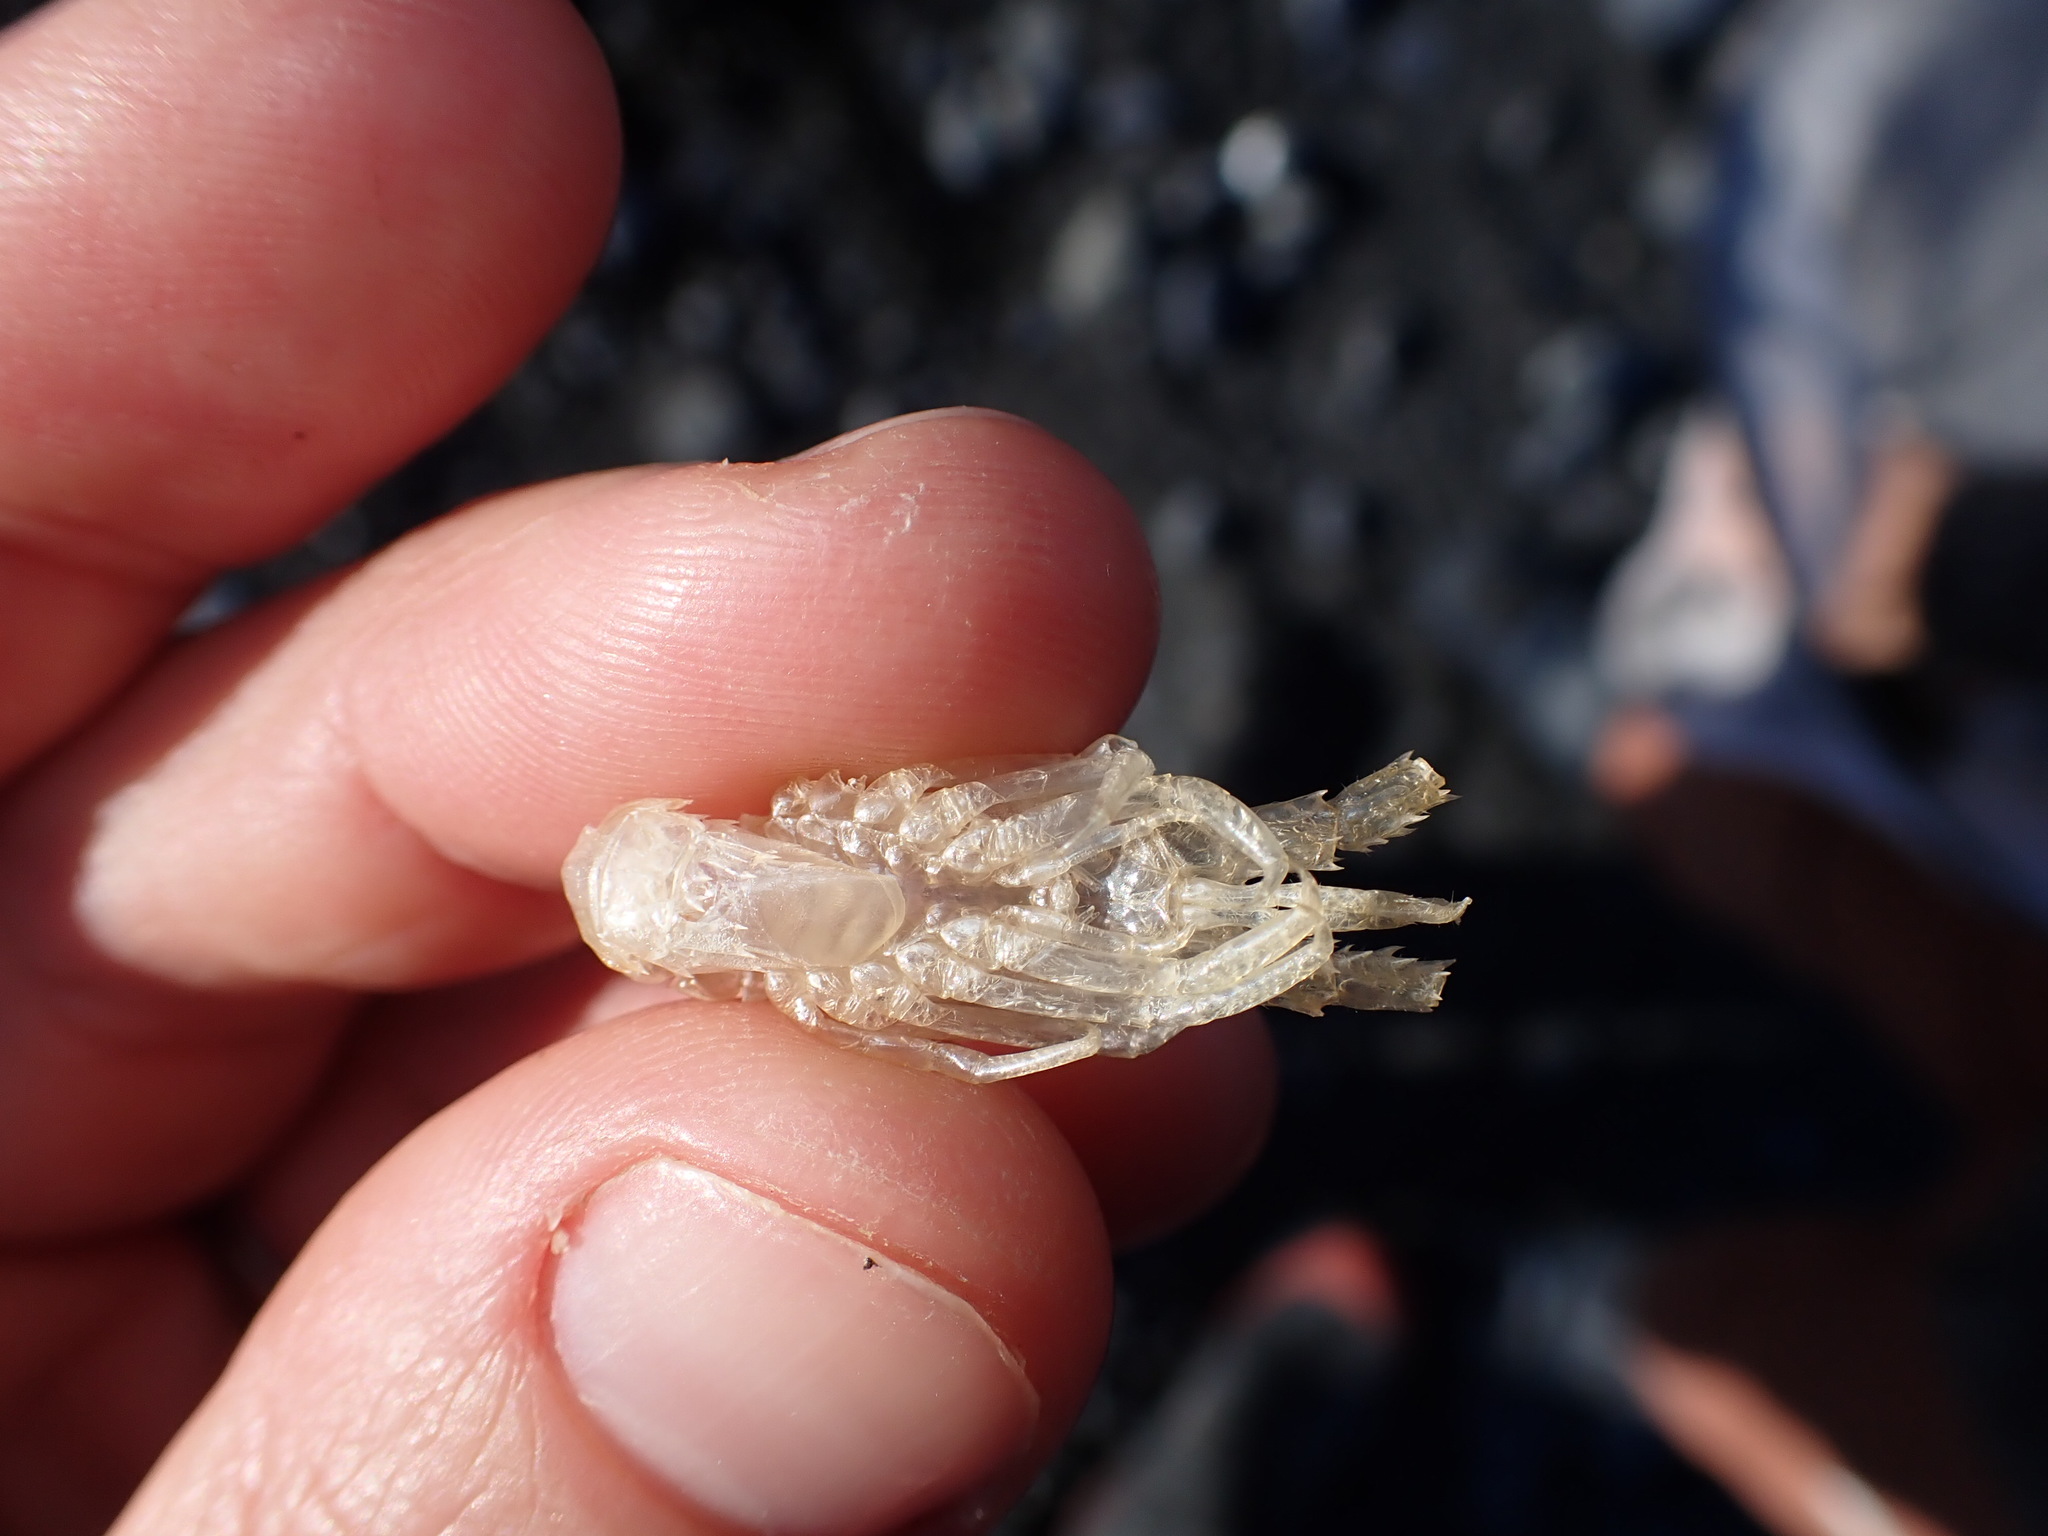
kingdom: Animalia
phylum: Arthropoda
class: Malacostraca
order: Decapoda
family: Palinuridae
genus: Jasus
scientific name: Jasus edwardsii
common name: Red rock lobster
